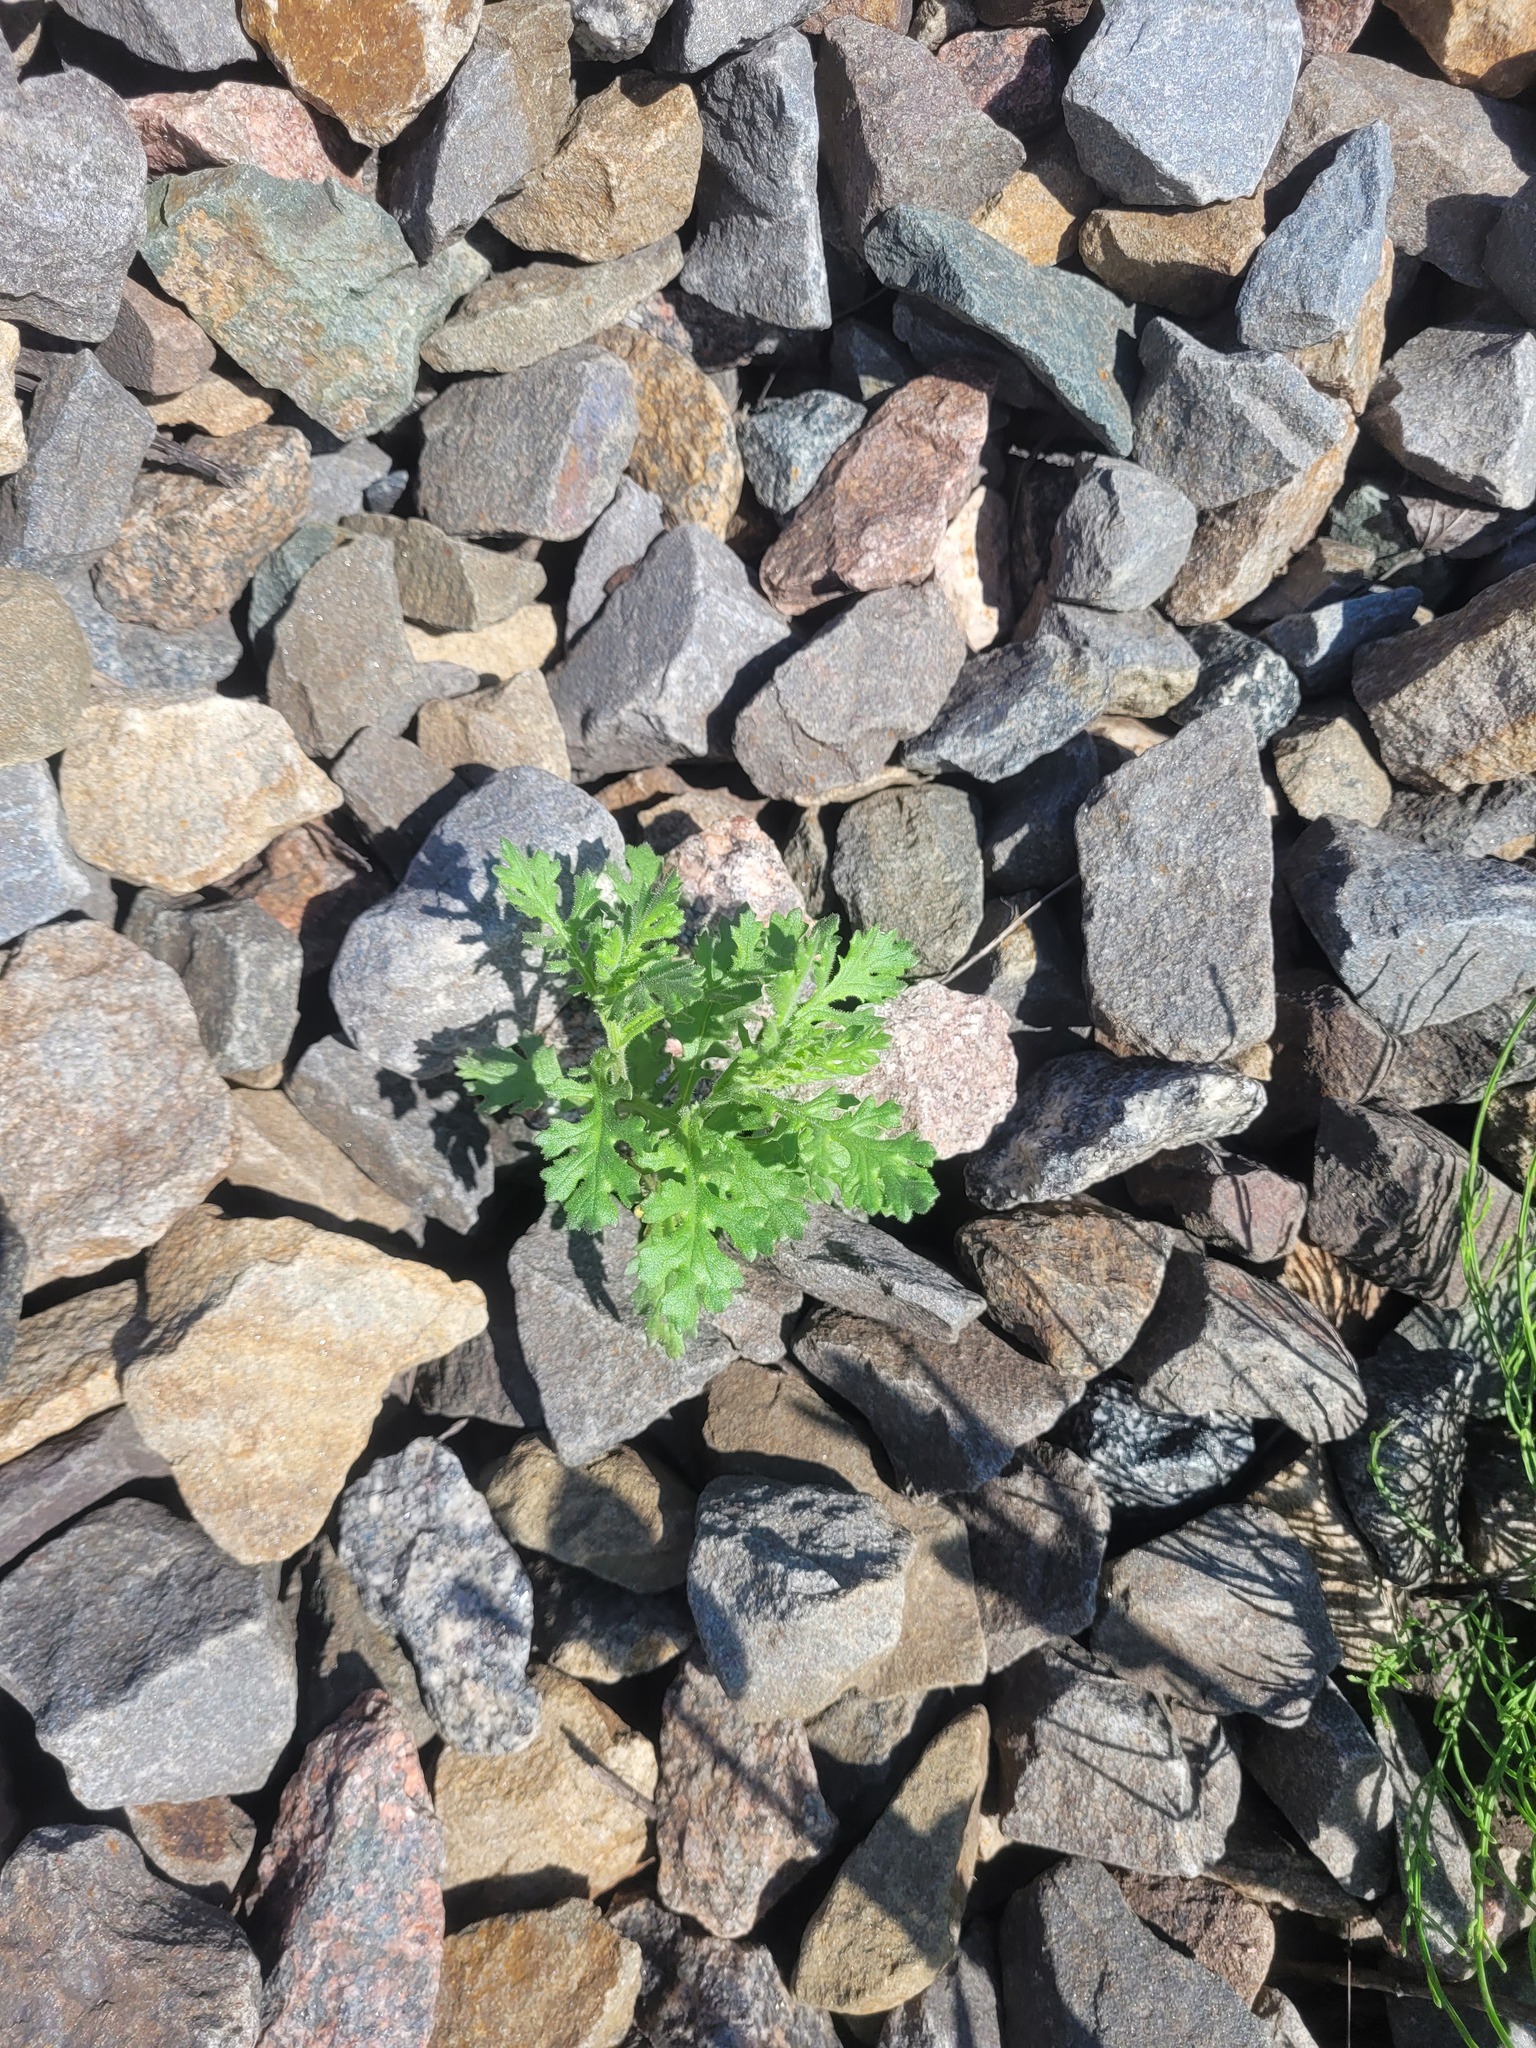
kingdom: Plantae
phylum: Tracheophyta
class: Magnoliopsida
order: Asterales
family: Asteraceae
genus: Senecio
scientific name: Senecio viscosus
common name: Sticky groundsel
